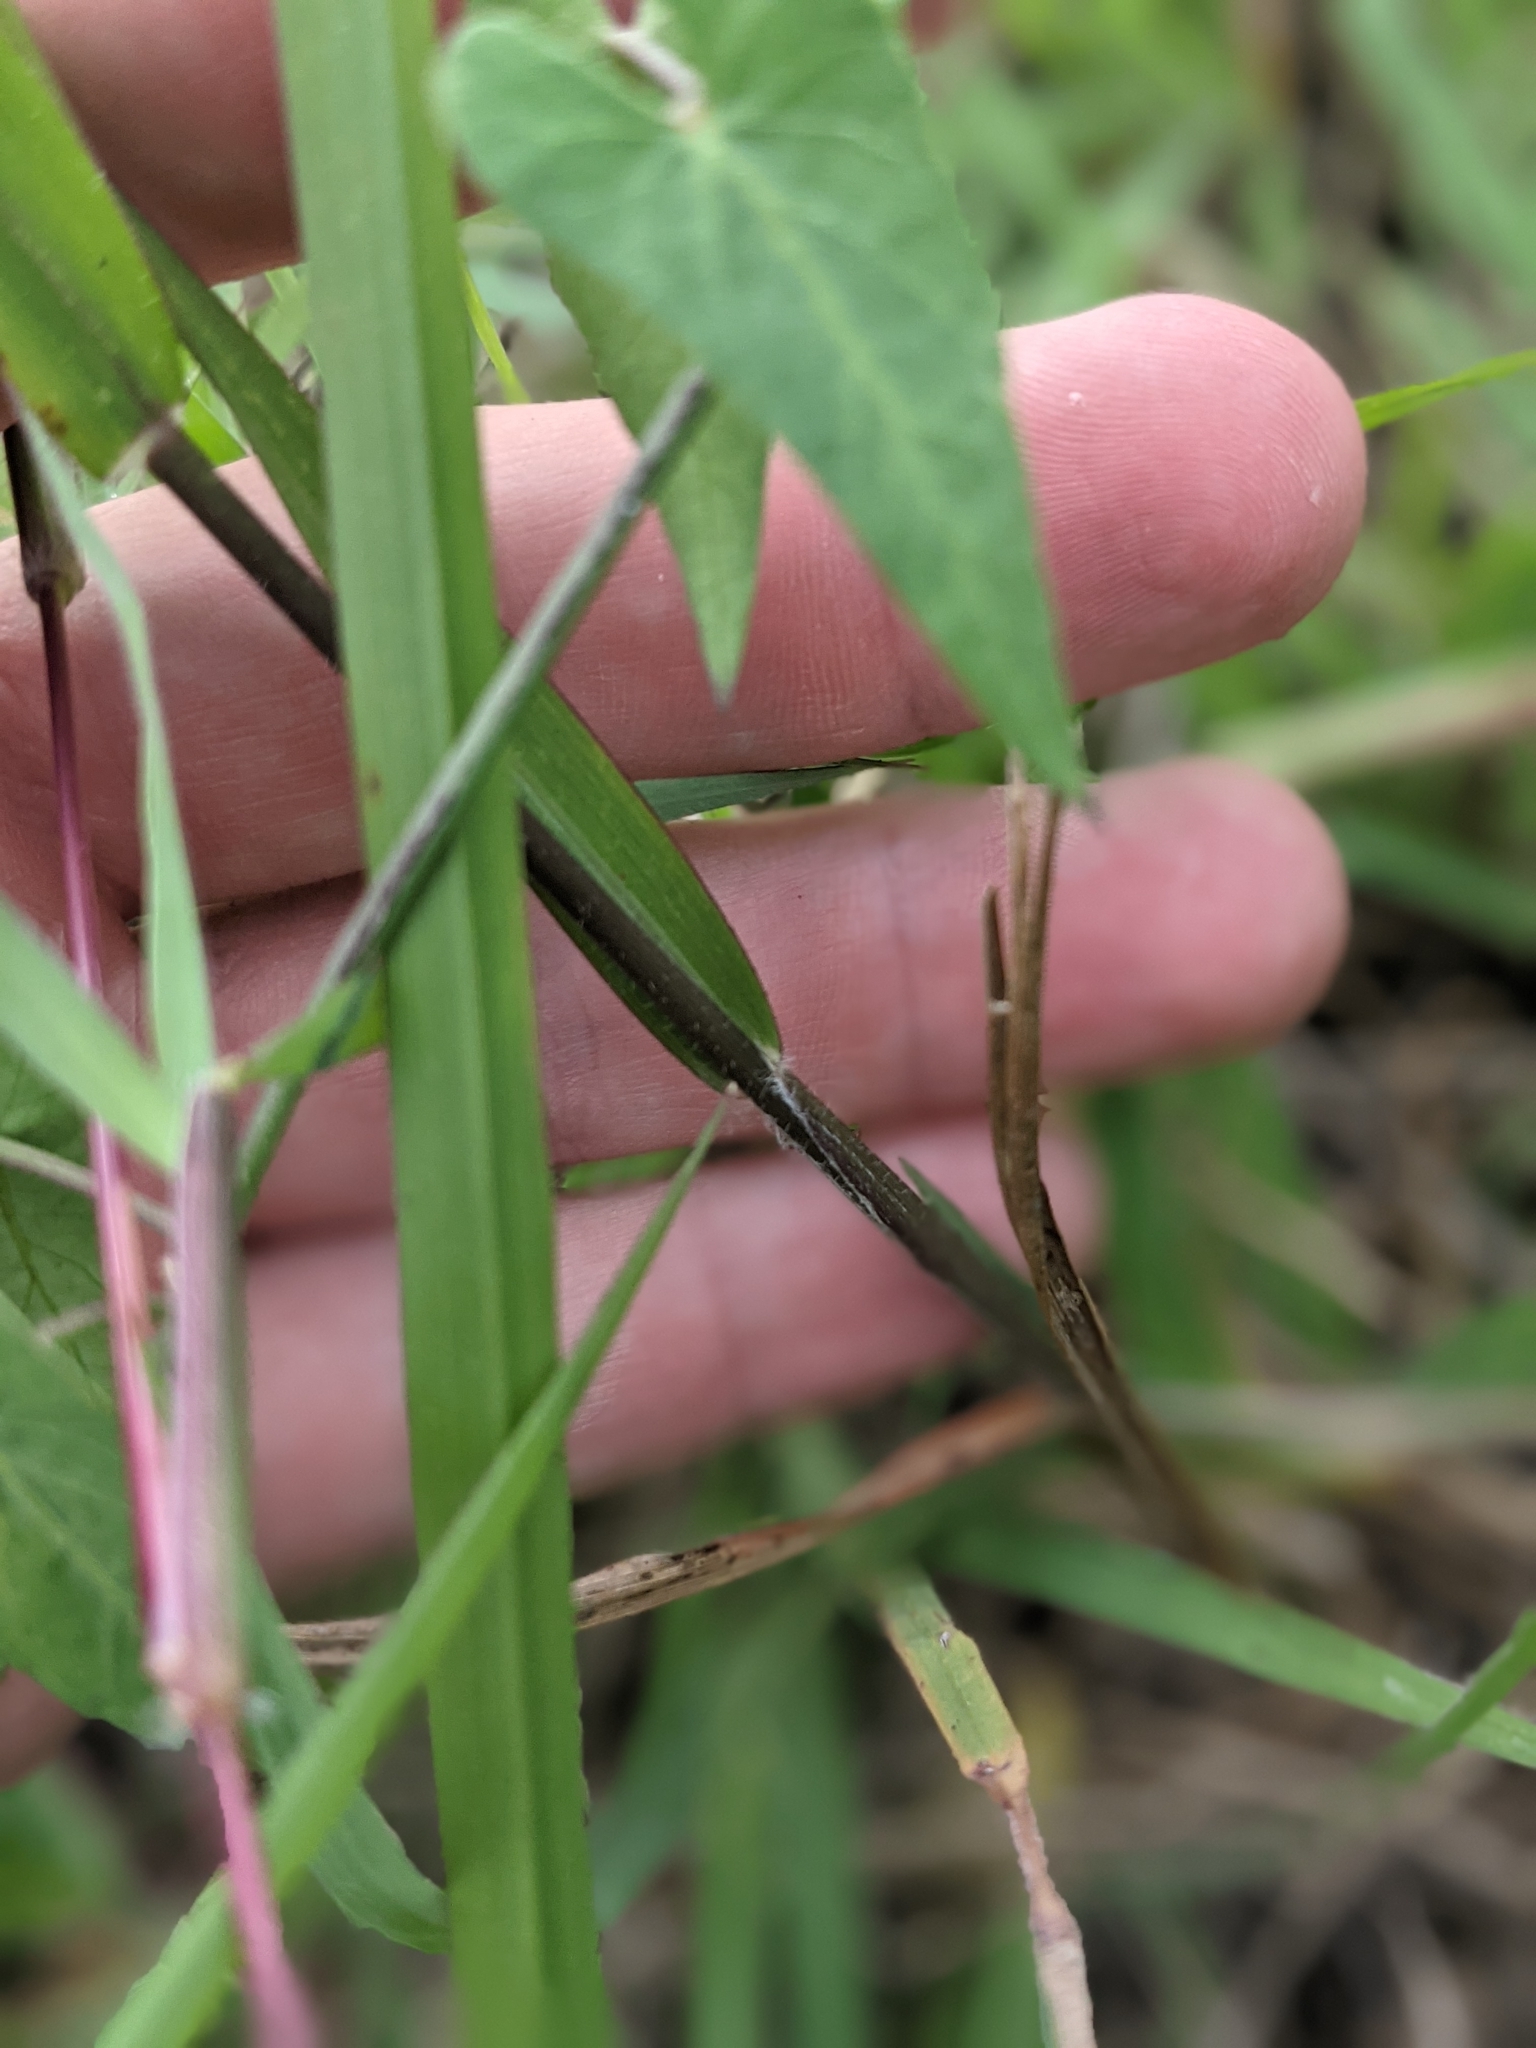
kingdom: Plantae
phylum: Tracheophyta
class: Liliopsida
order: Poales
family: Poaceae
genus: Panicum
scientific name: Panicum capillarioides
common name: Long-beak witchgrass
